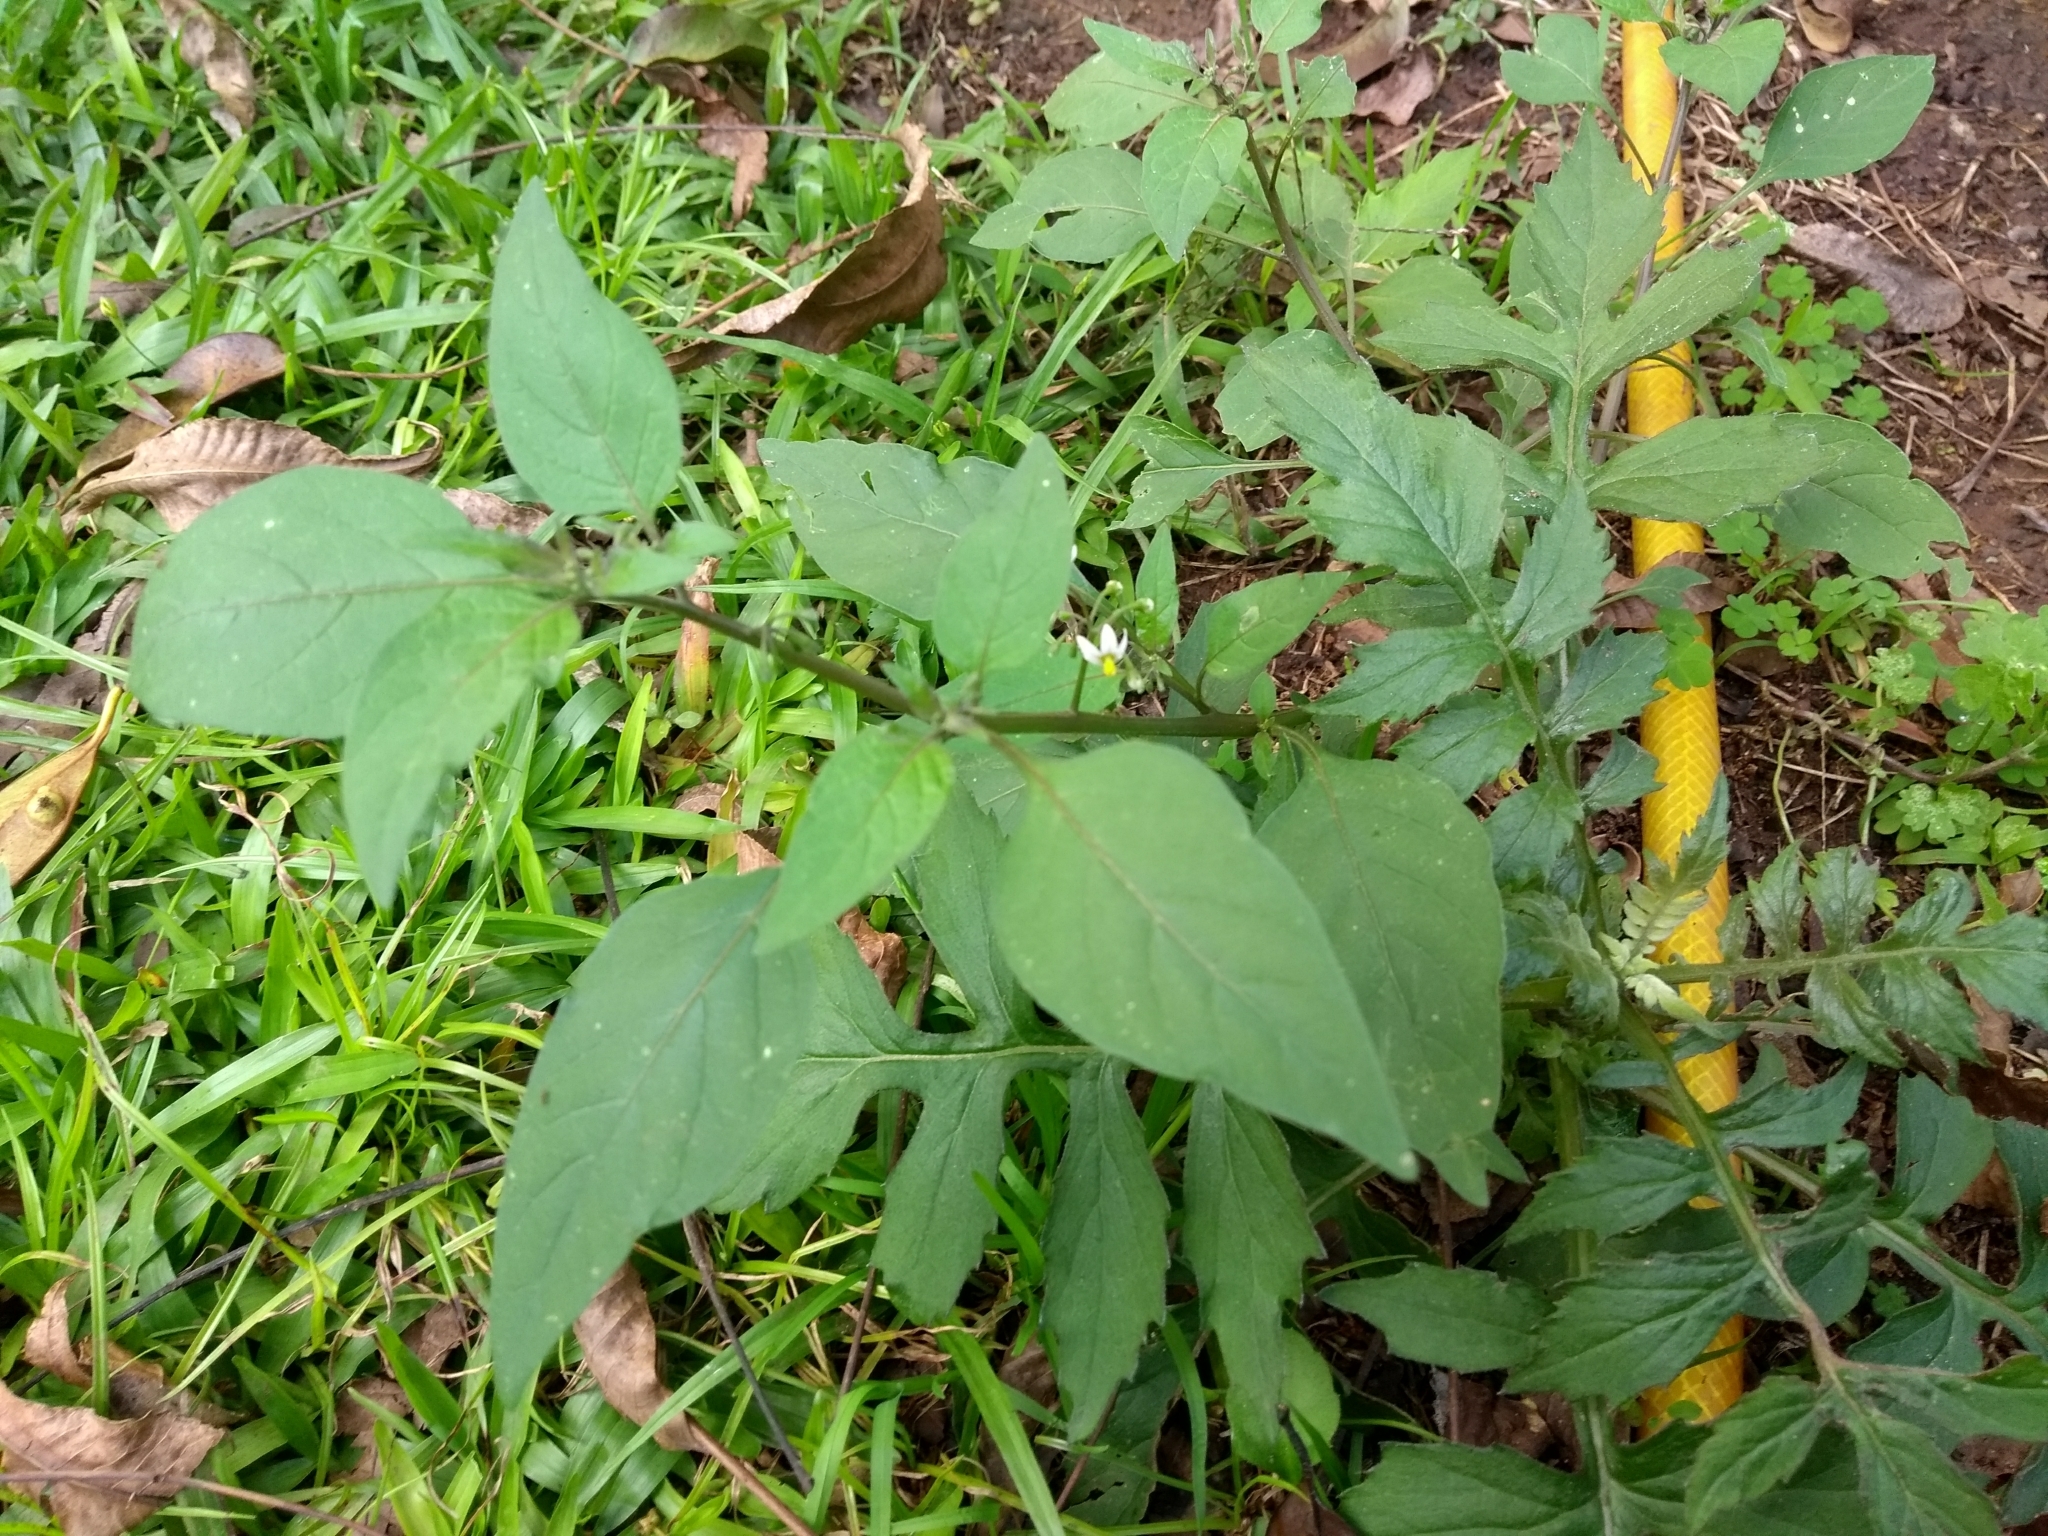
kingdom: Plantae
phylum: Tracheophyta
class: Magnoliopsida
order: Solanales
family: Solanaceae
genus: Solanum
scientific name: Solanum americanum
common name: American black nightshade
